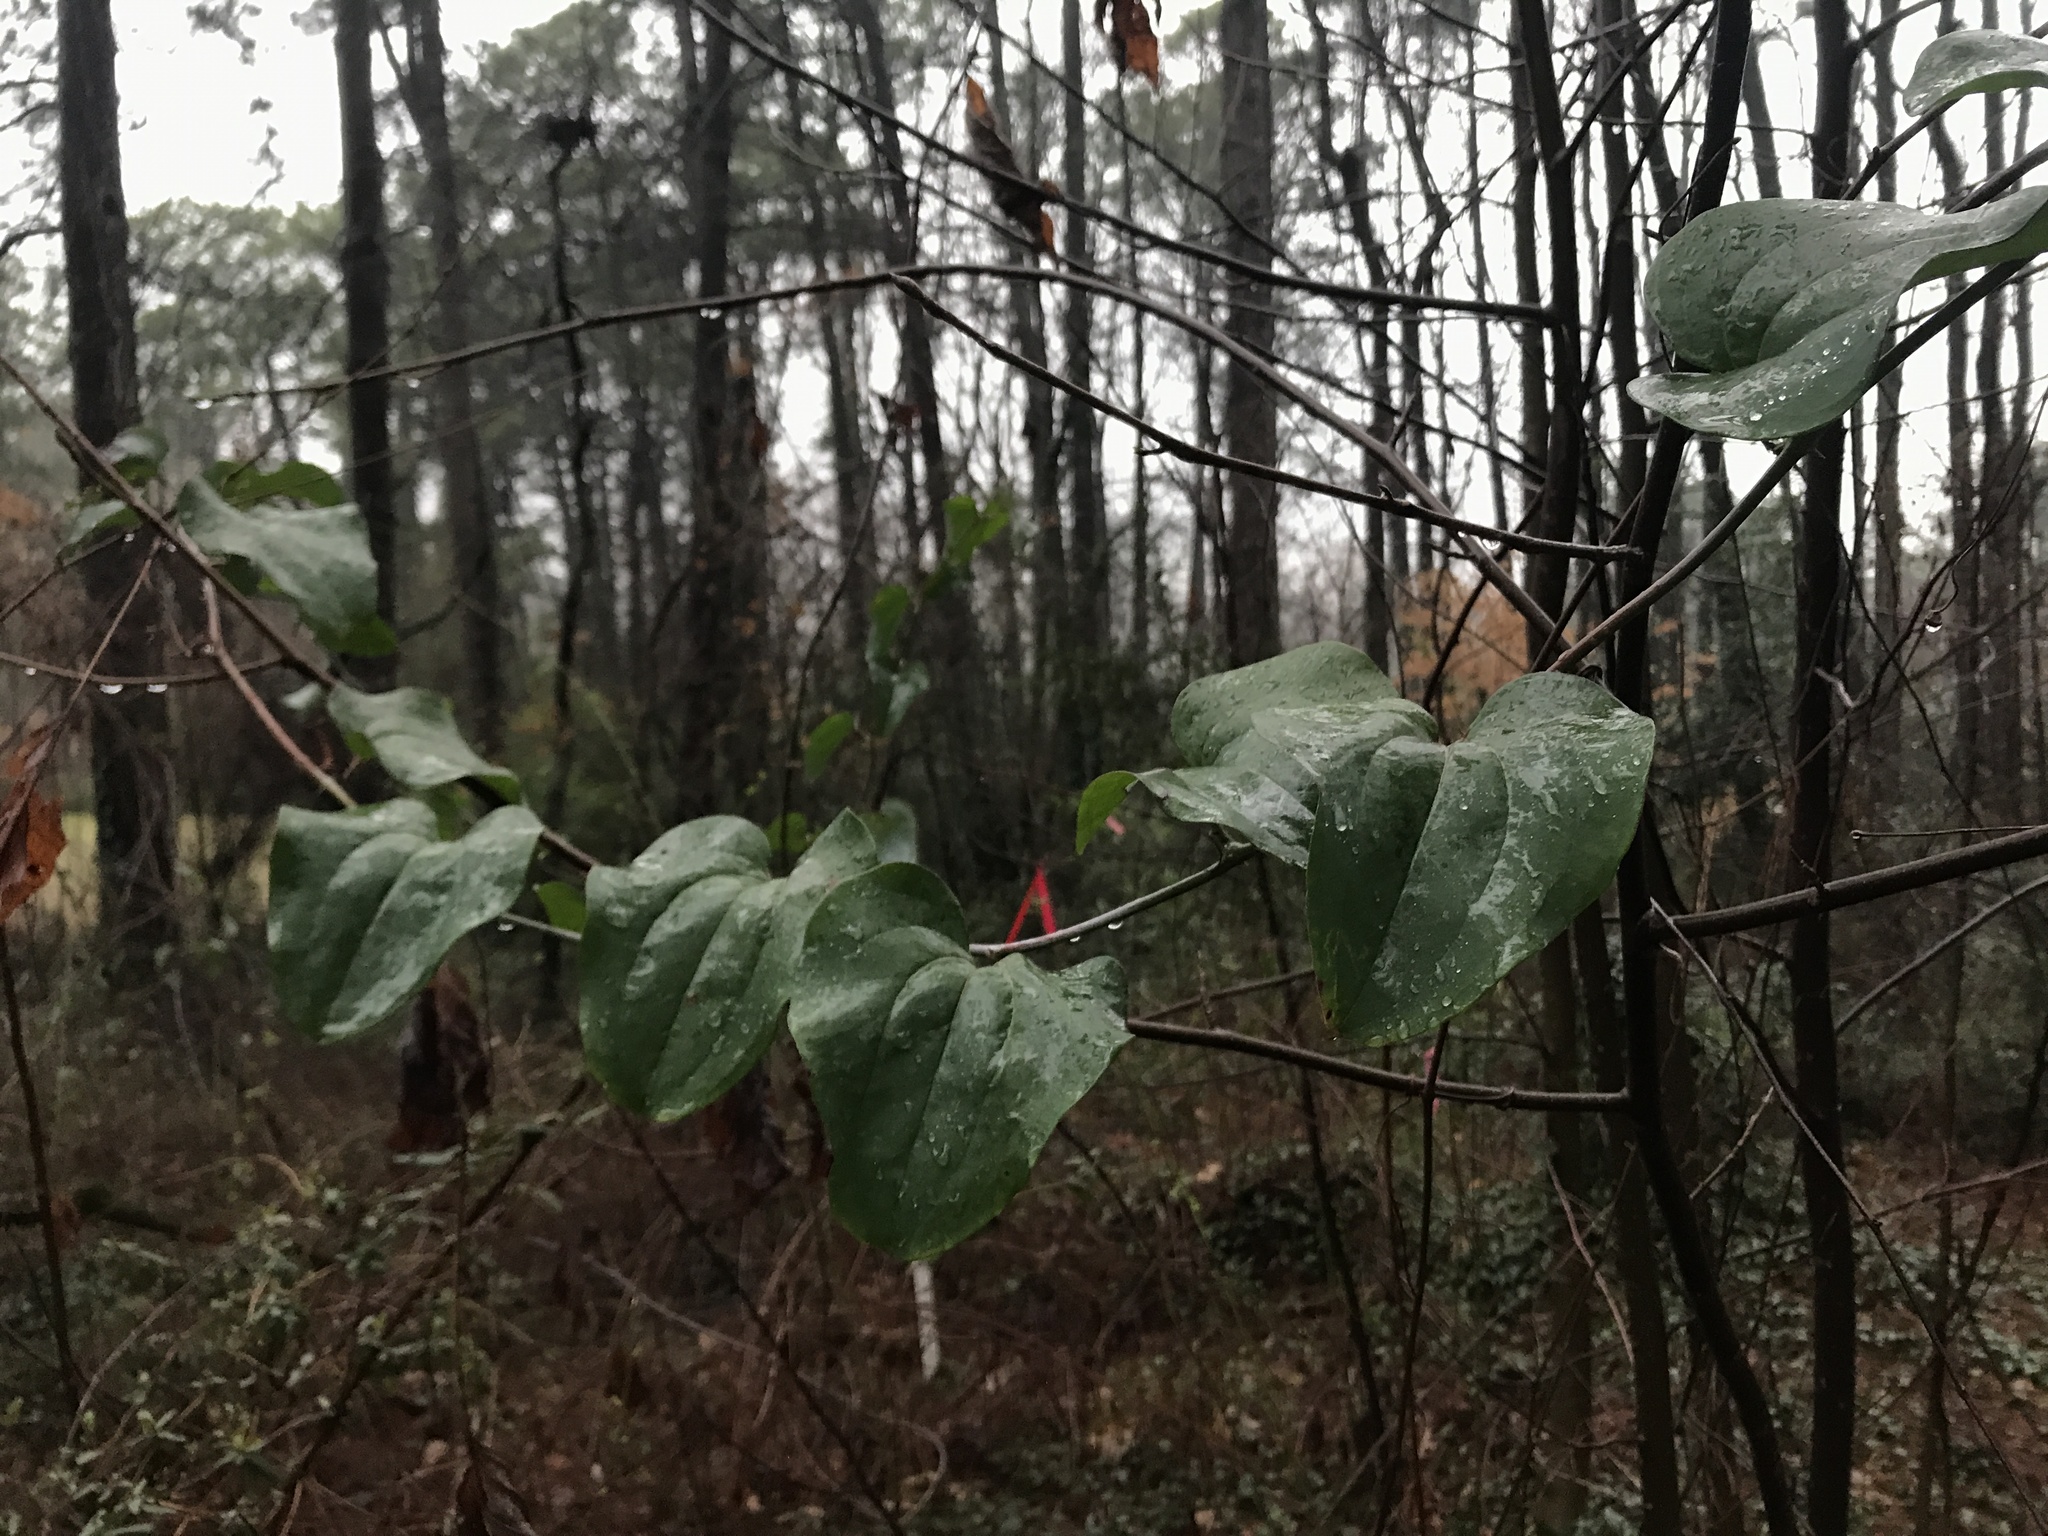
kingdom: Plantae
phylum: Tracheophyta
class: Liliopsida
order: Liliales
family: Smilacaceae
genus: Smilax
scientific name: Smilax rotundifolia
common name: Bullbriar
